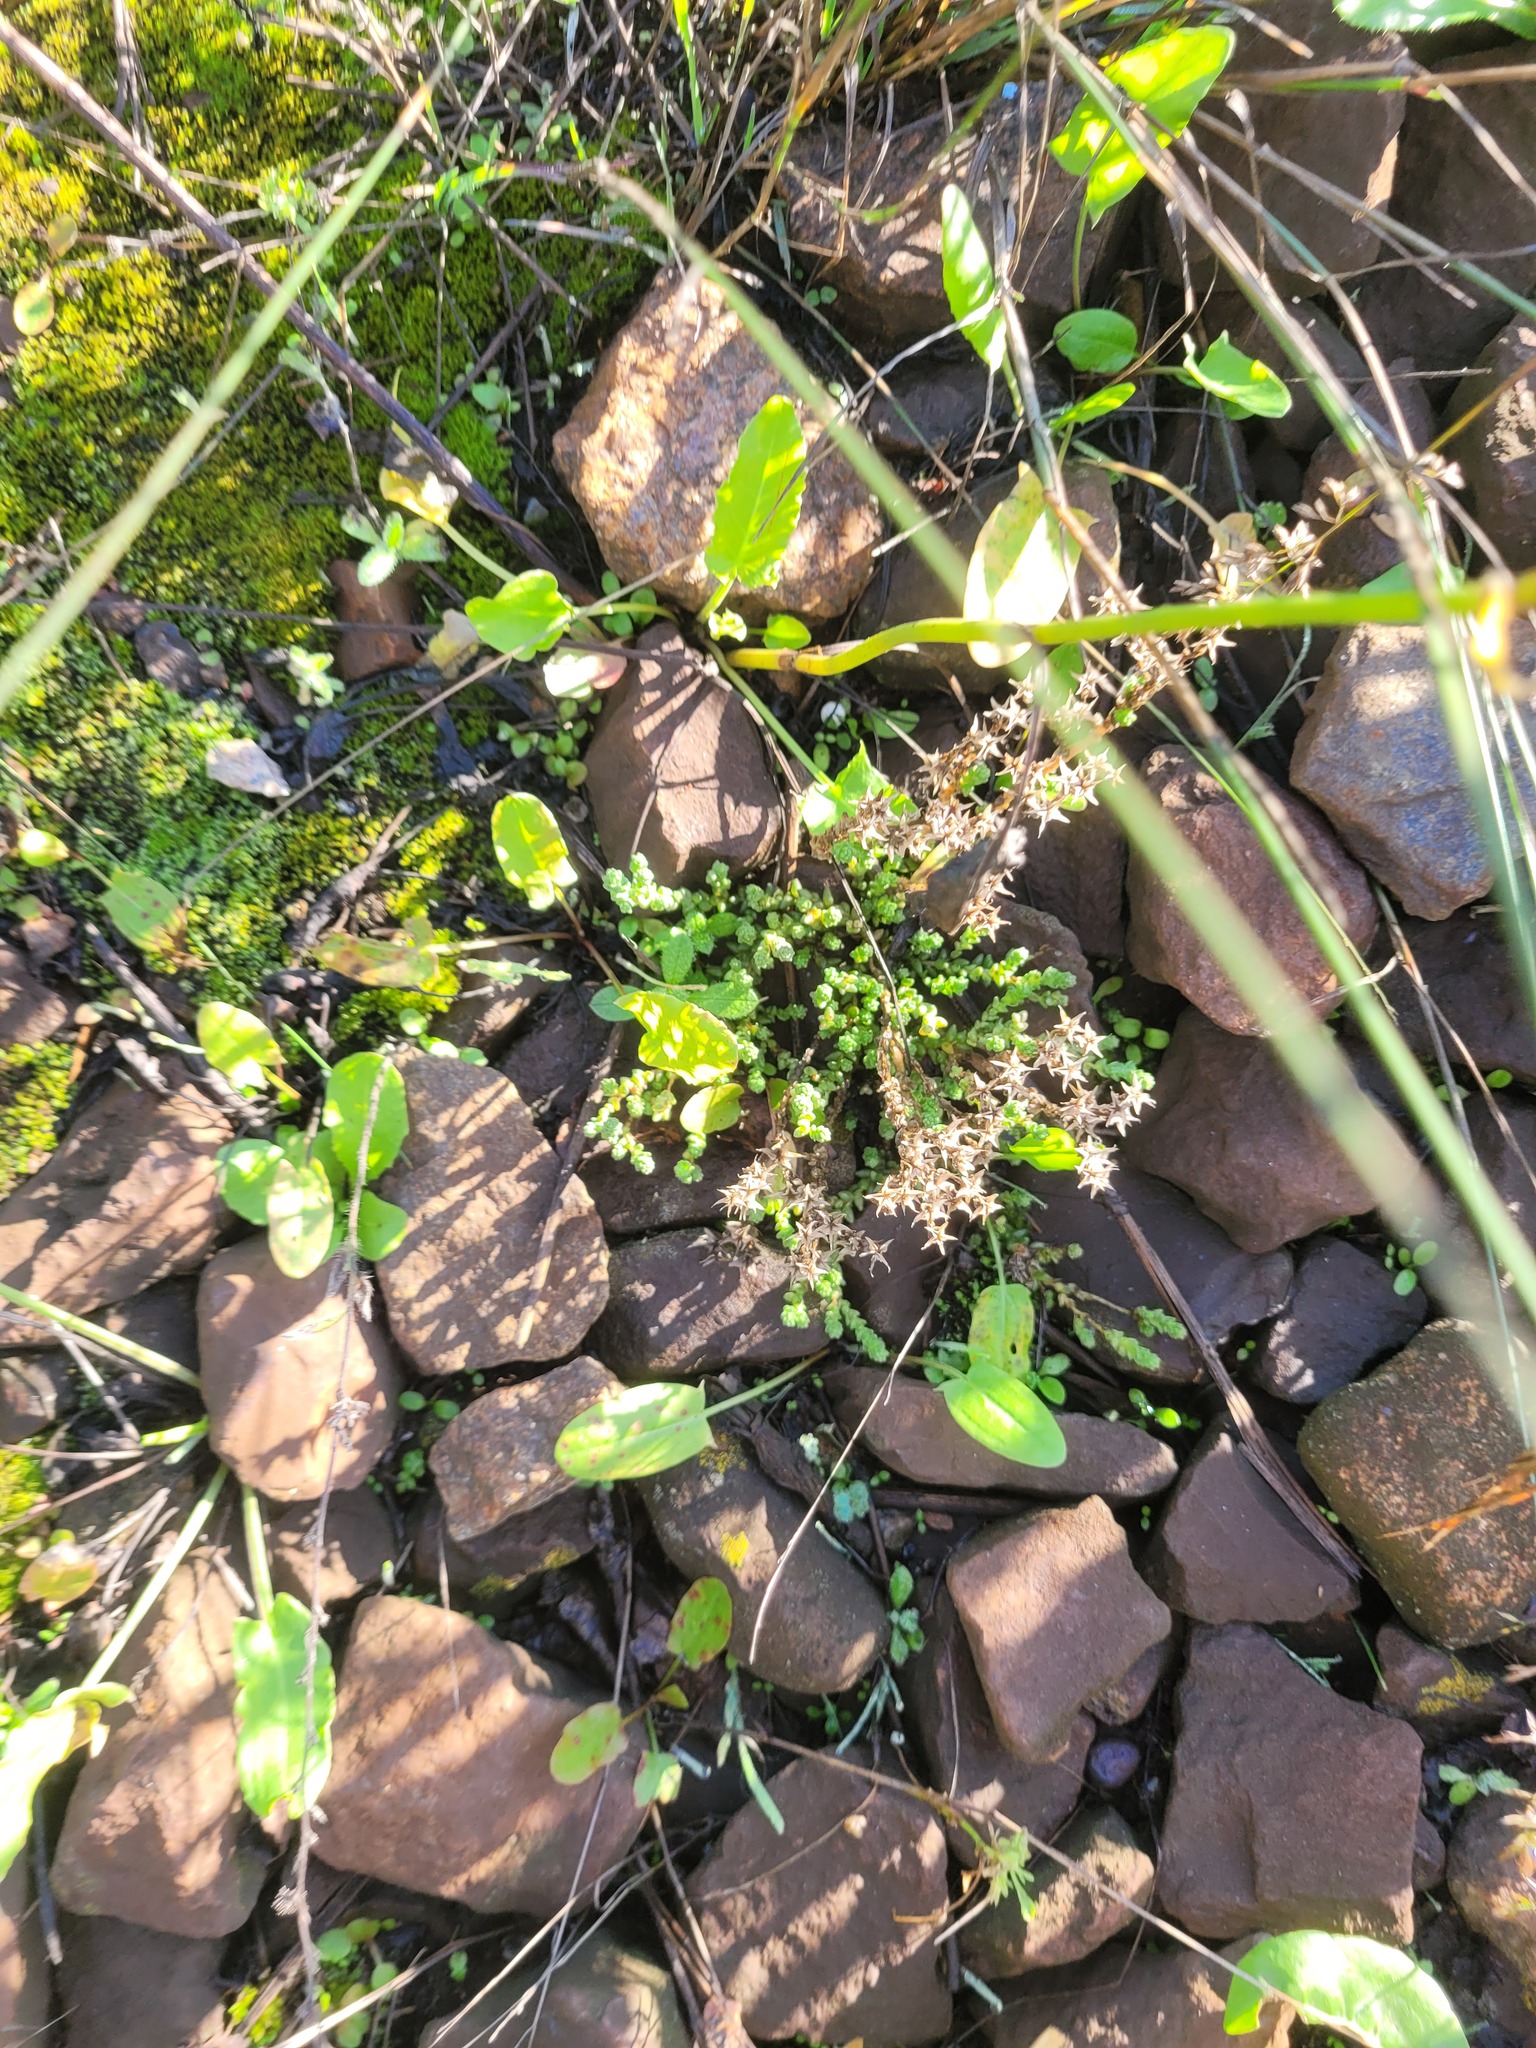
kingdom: Plantae
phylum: Tracheophyta
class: Magnoliopsida
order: Saxifragales
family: Crassulaceae
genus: Sedum
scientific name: Sedum acre
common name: Biting stonecrop
